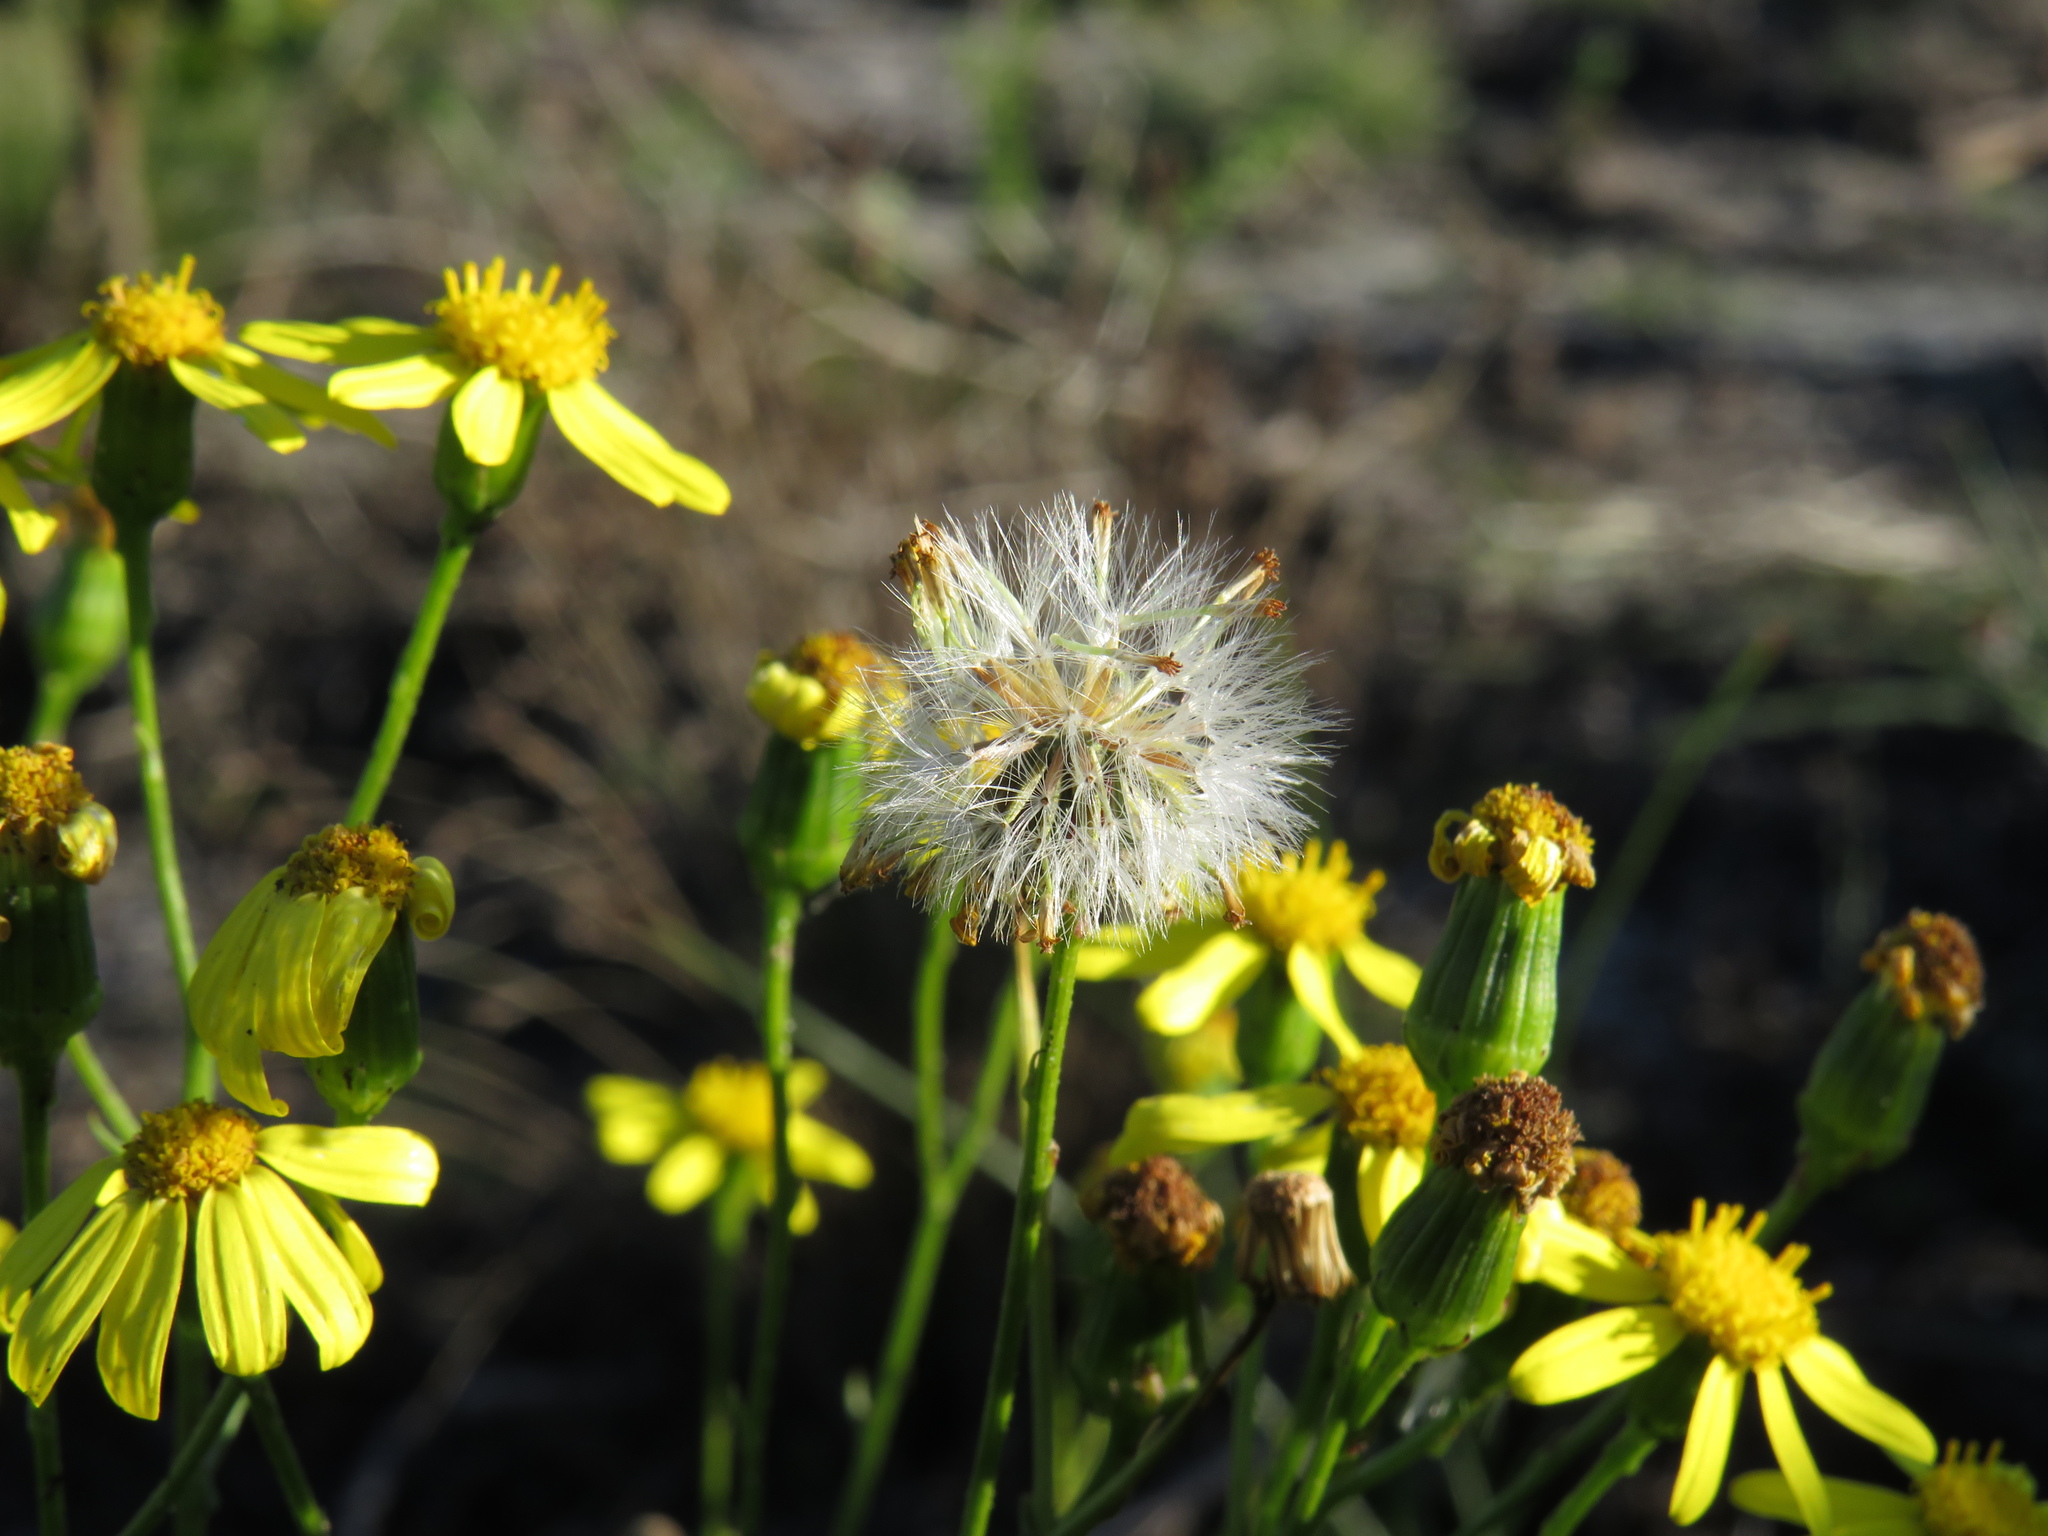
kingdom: Plantae
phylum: Tracheophyta
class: Magnoliopsida
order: Asterales
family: Asteraceae
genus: Senecio
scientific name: Senecio burchellii
